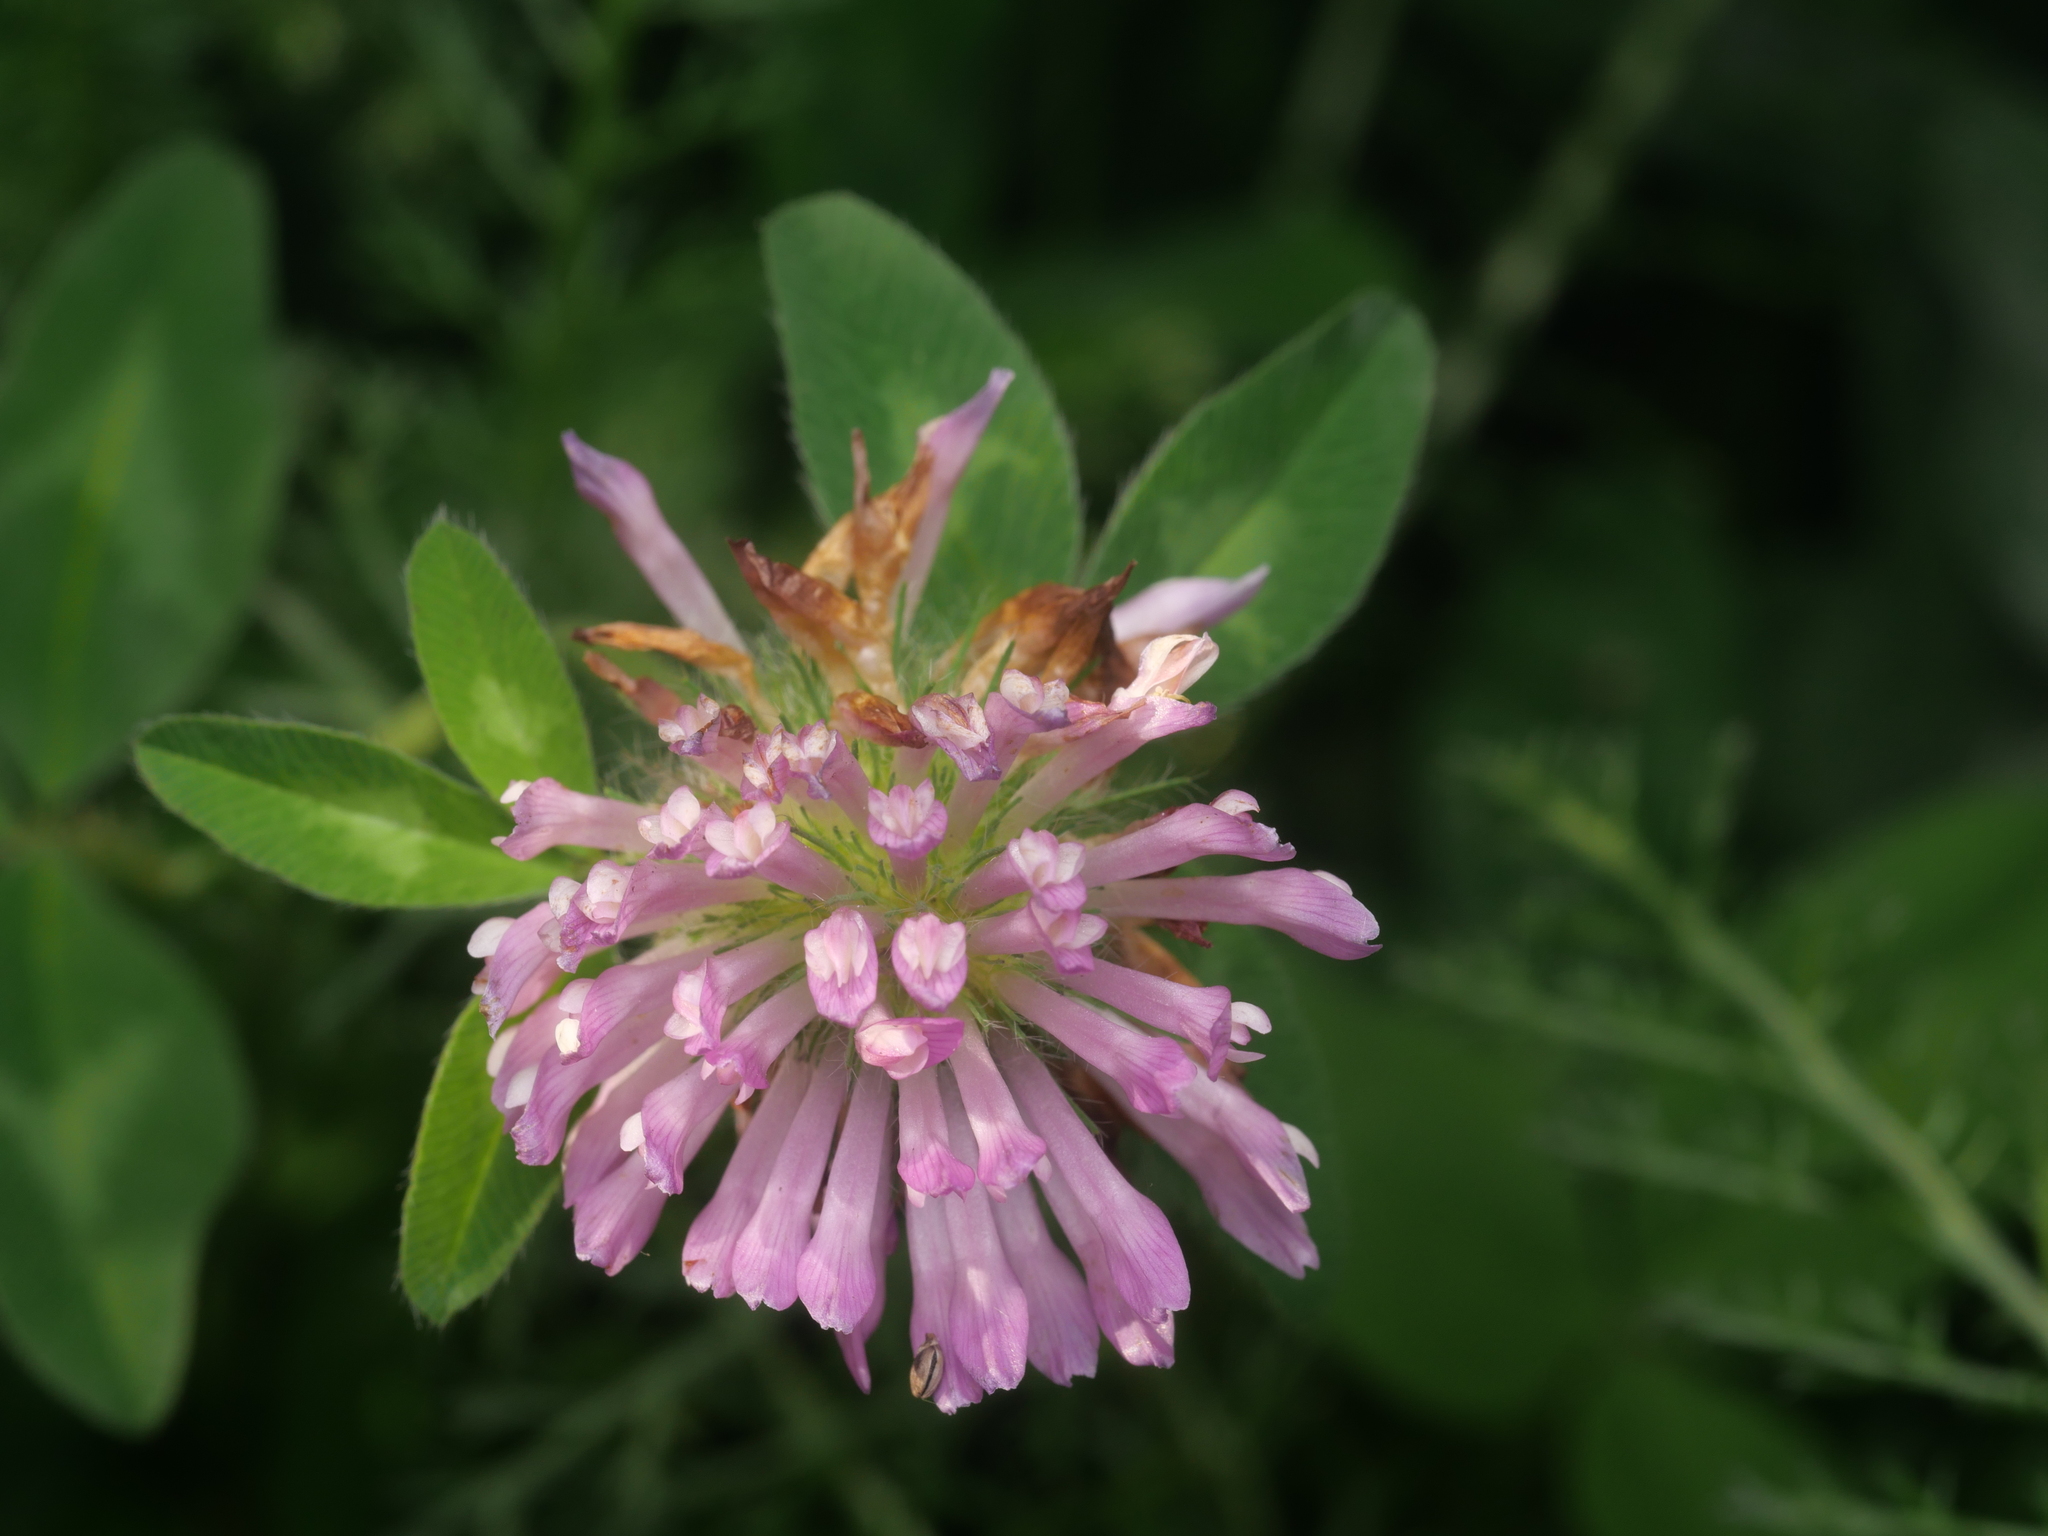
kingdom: Plantae
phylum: Tracheophyta
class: Magnoliopsida
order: Fabales
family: Fabaceae
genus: Trifolium
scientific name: Trifolium pratense
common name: Red clover
